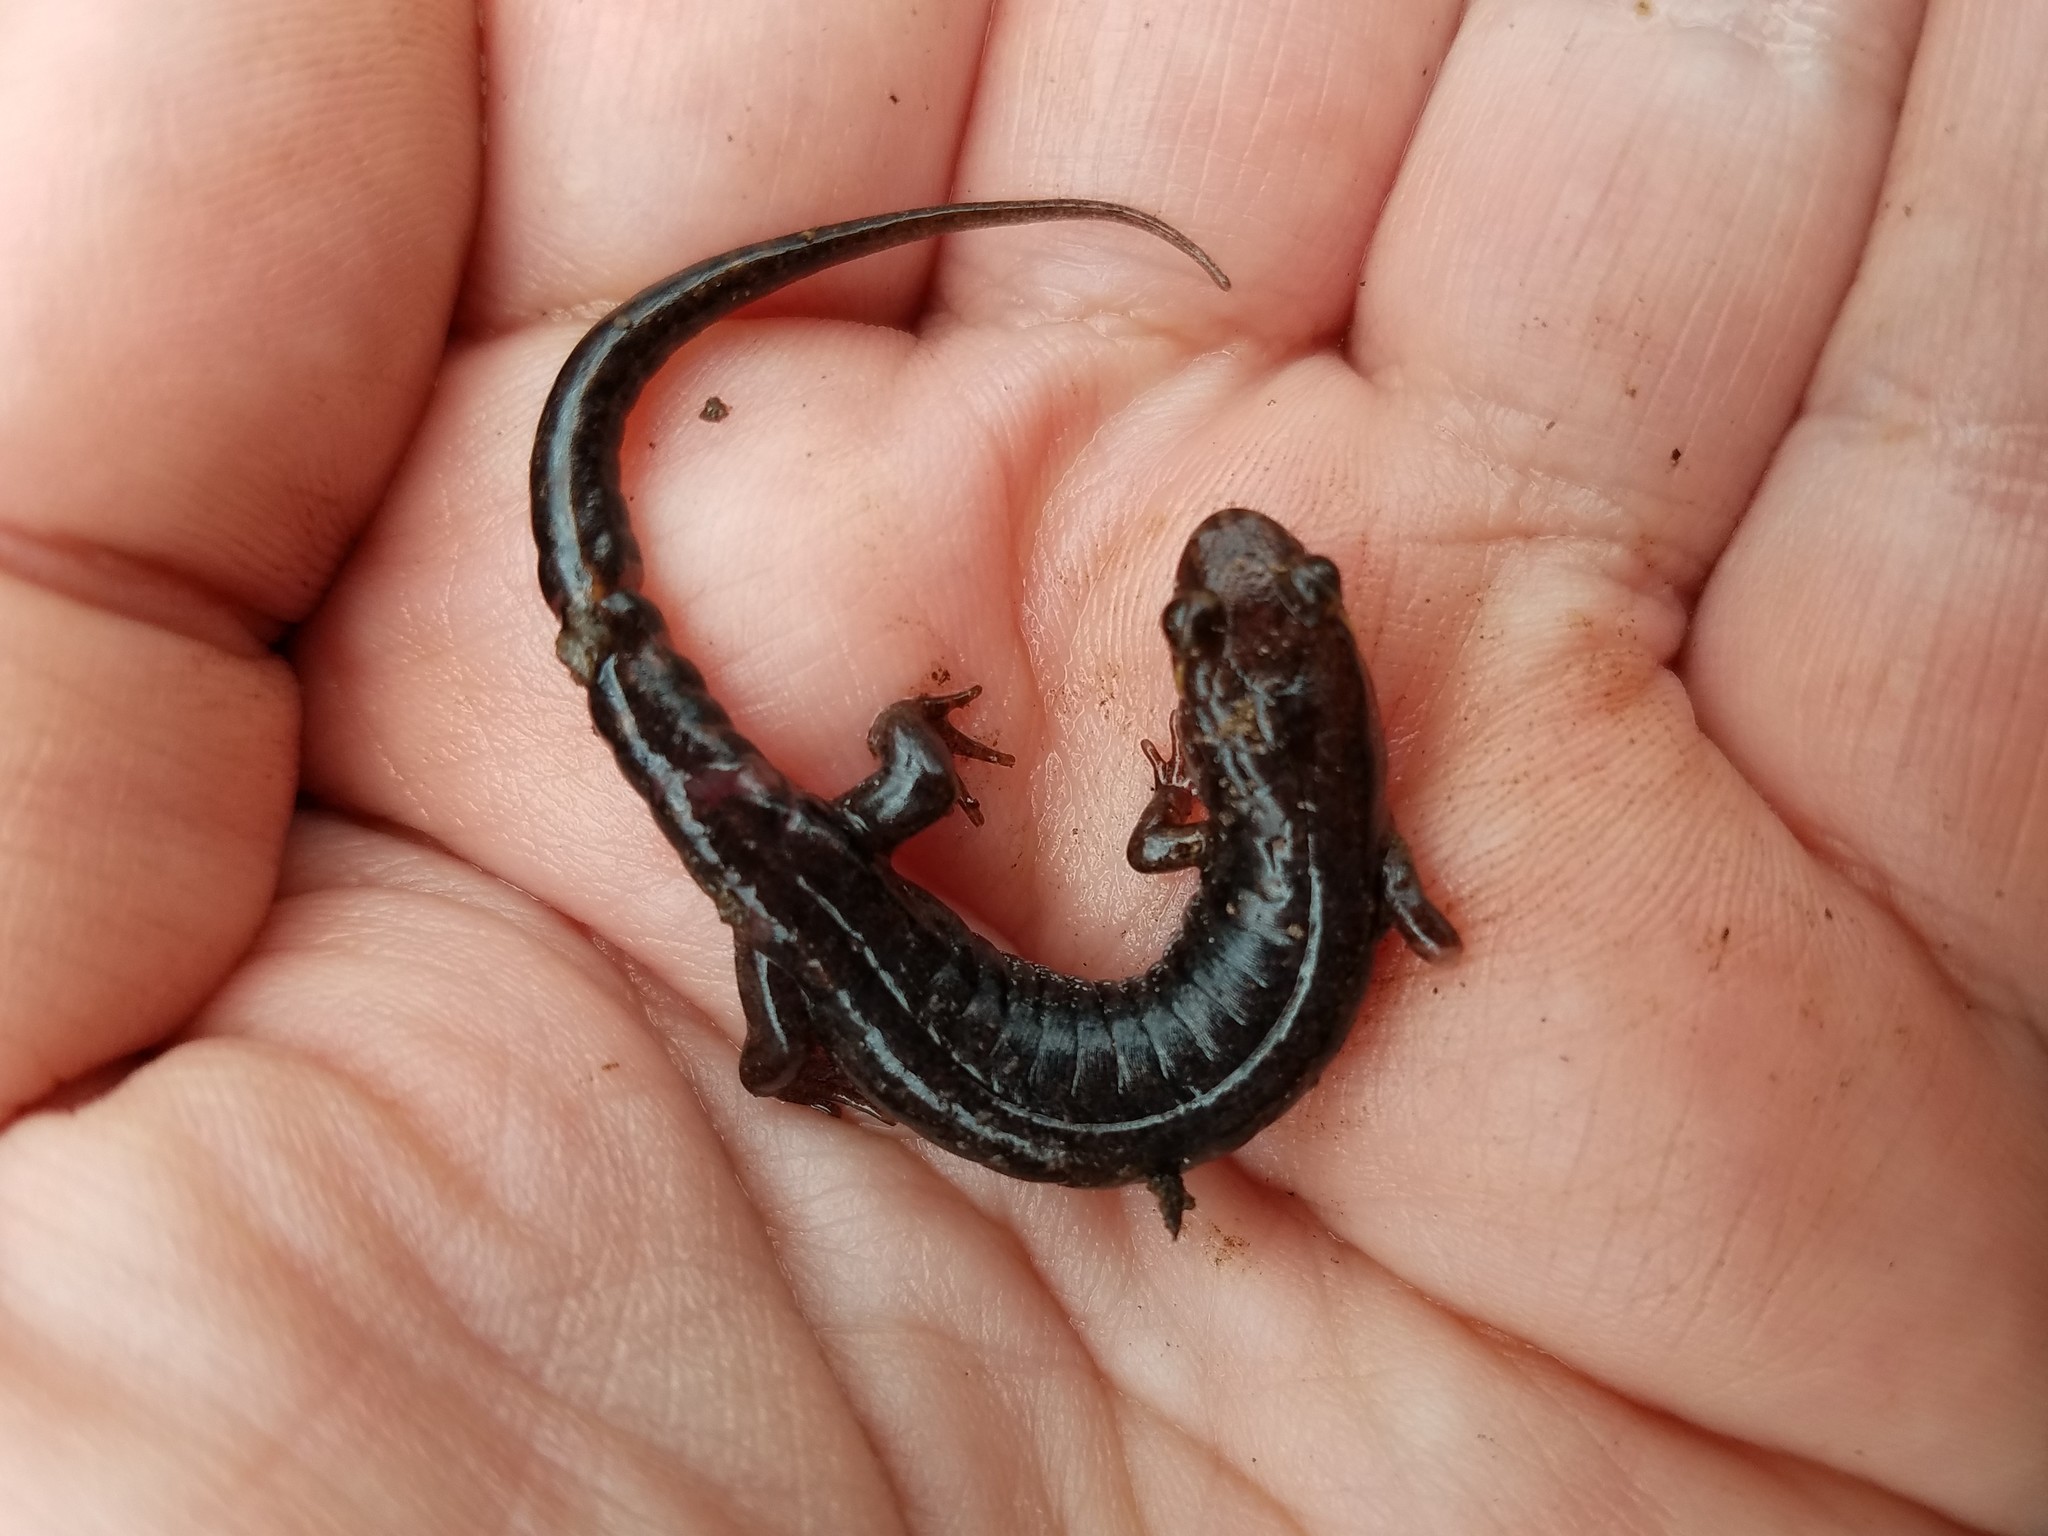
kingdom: Animalia
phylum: Chordata
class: Amphibia
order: Caudata
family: Plethodontidae
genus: Desmognathus
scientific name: Desmognathus ocoee
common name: Ocoee salamander
